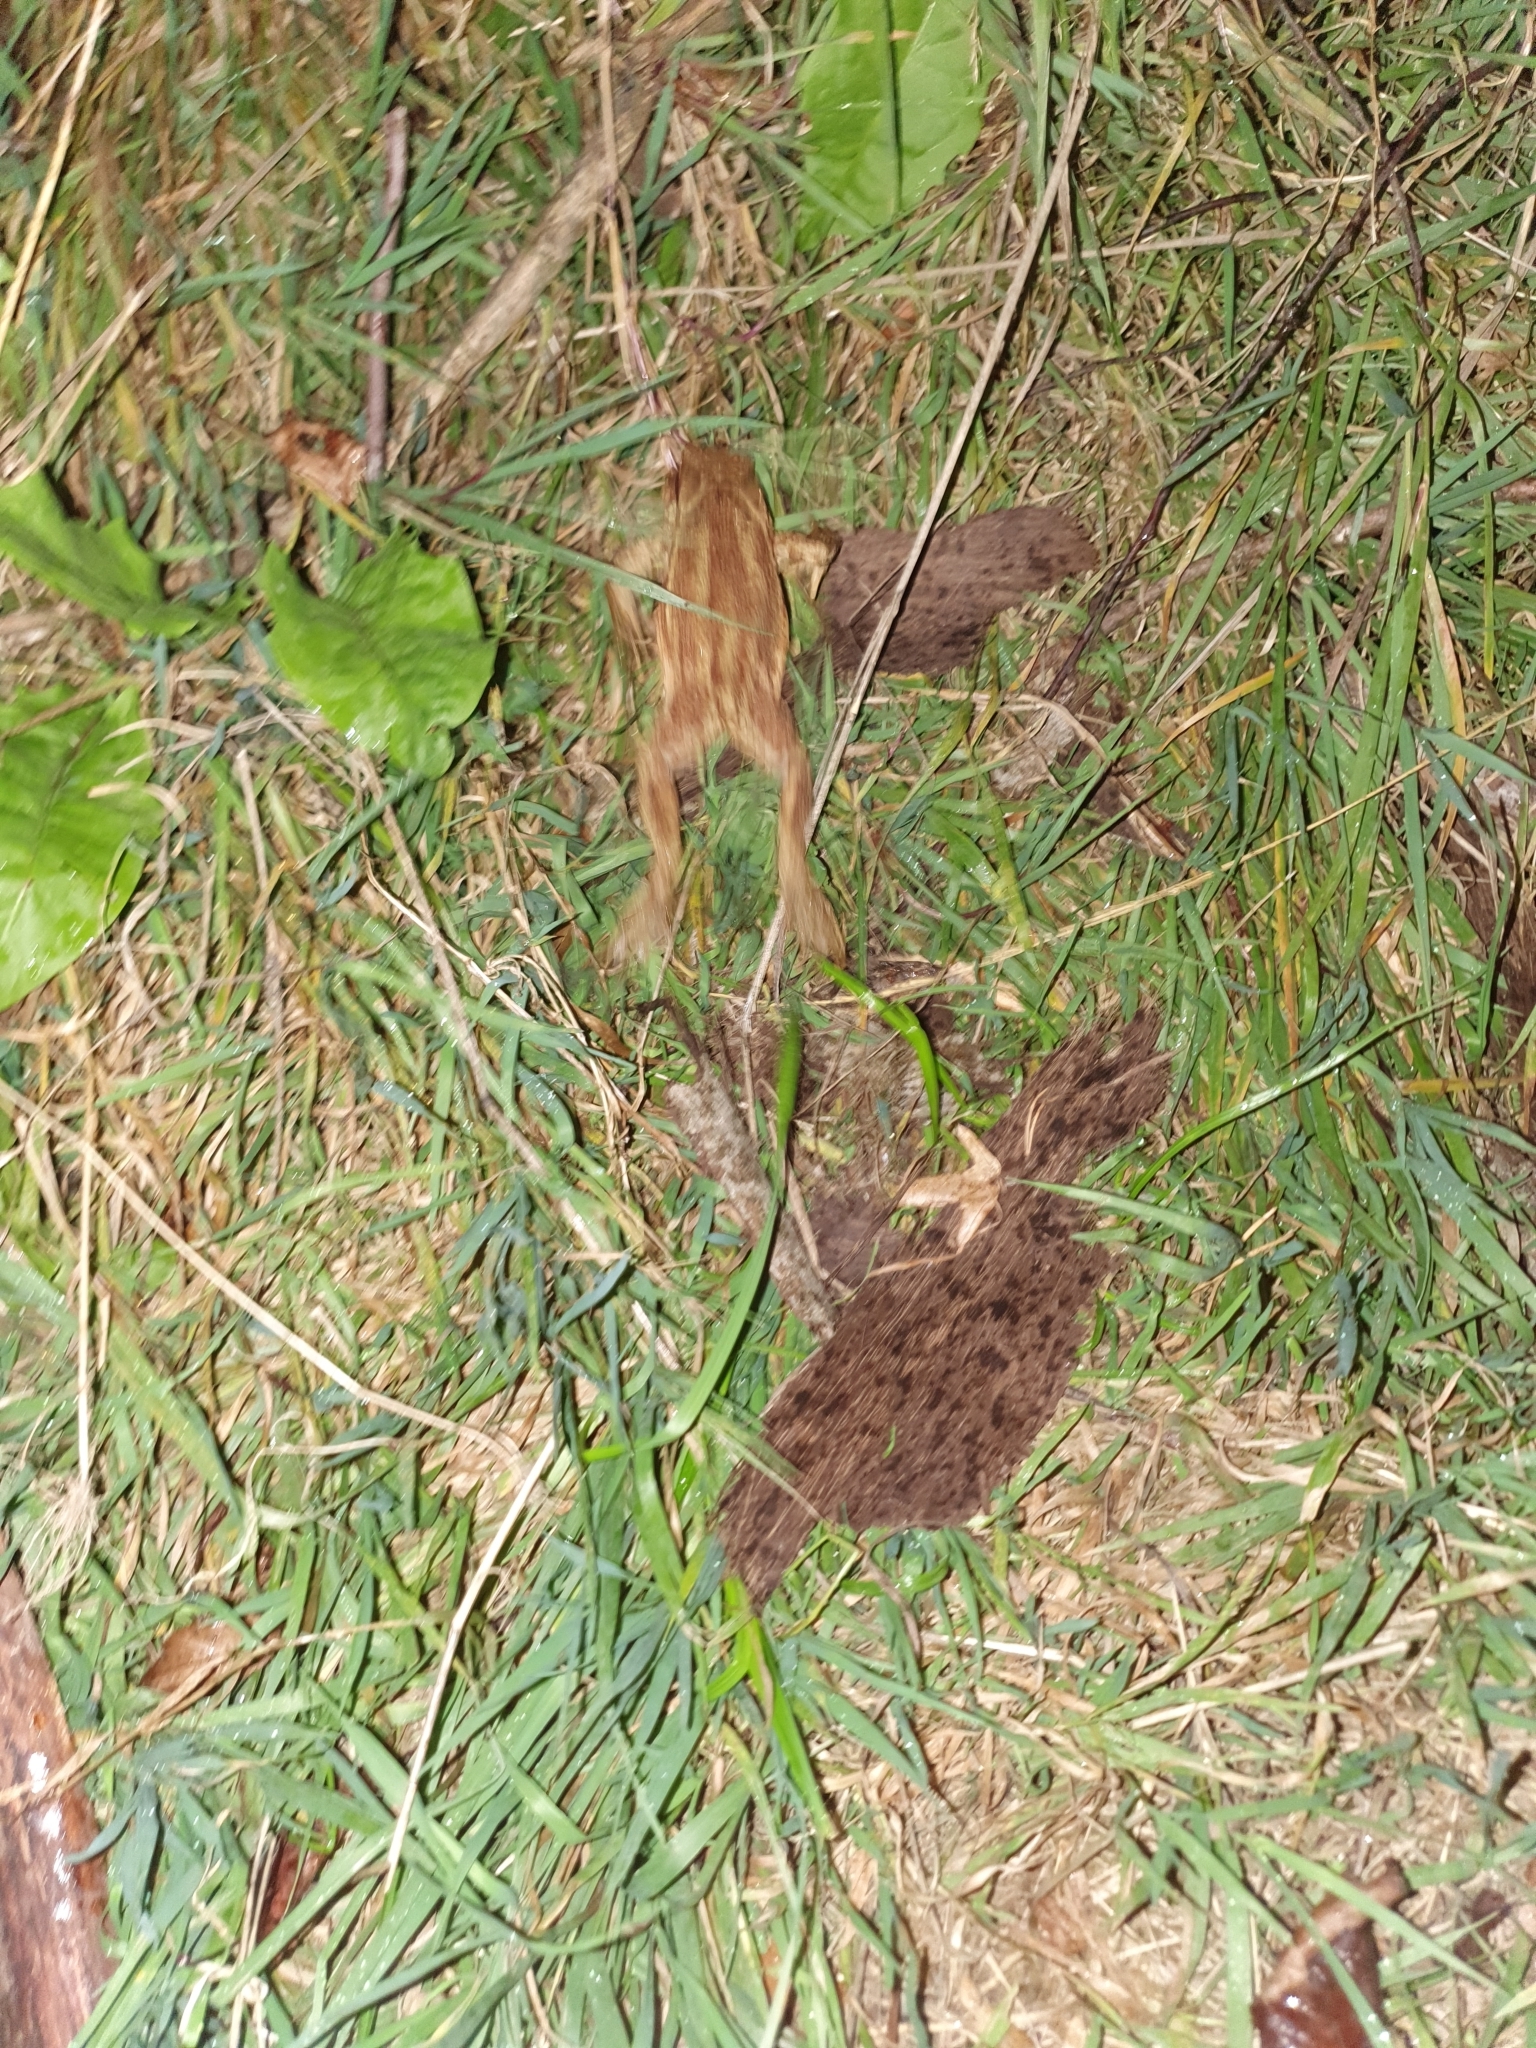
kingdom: Animalia
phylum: Chordata
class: Amphibia
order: Anura
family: Bufonidae
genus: Bufo
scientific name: Bufo bufo
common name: Common toad
